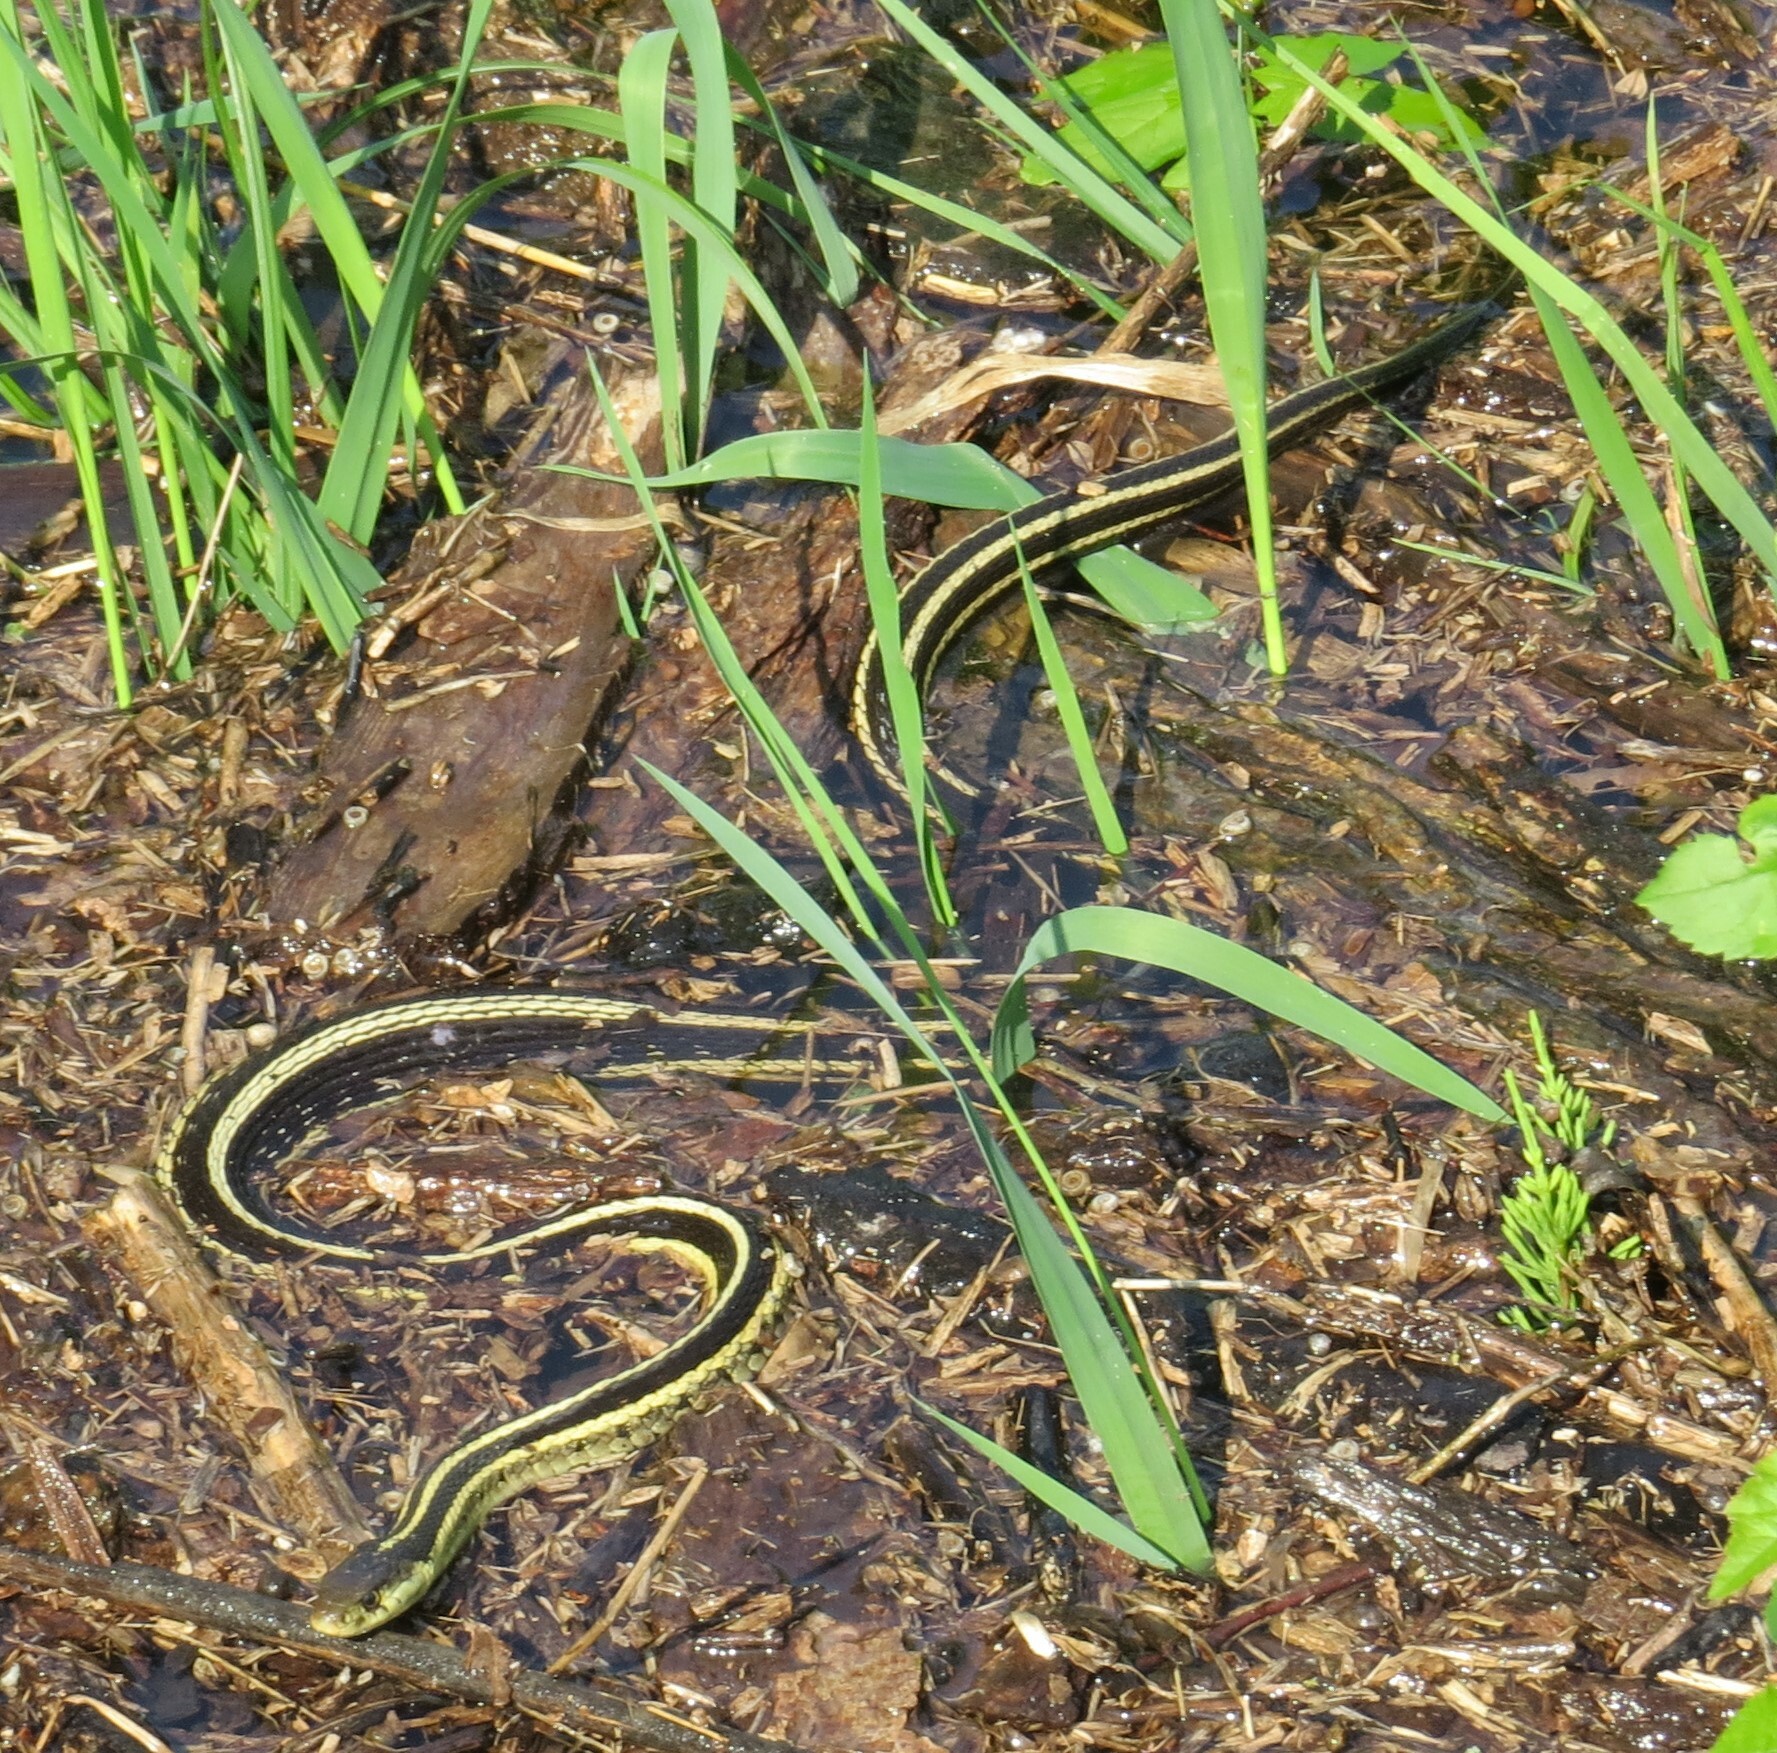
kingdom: Animalia
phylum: Chordata
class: Squamata
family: Colubridae
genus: Thamnophis
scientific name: Thamnophis sirtalis
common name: Common garter snake
